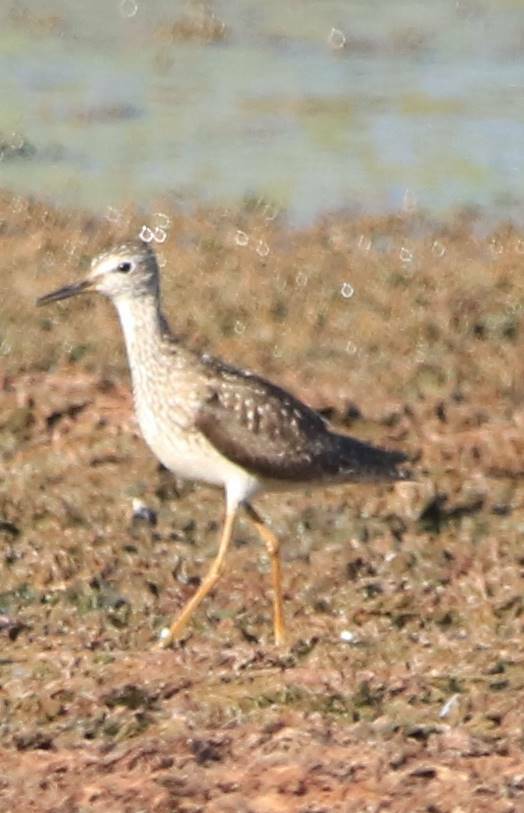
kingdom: Animalia
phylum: Chordata
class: Aves
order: Charadriiformes
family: Scolopacidae
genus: Tringa
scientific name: Tringa glareola
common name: Wood sandpiper
